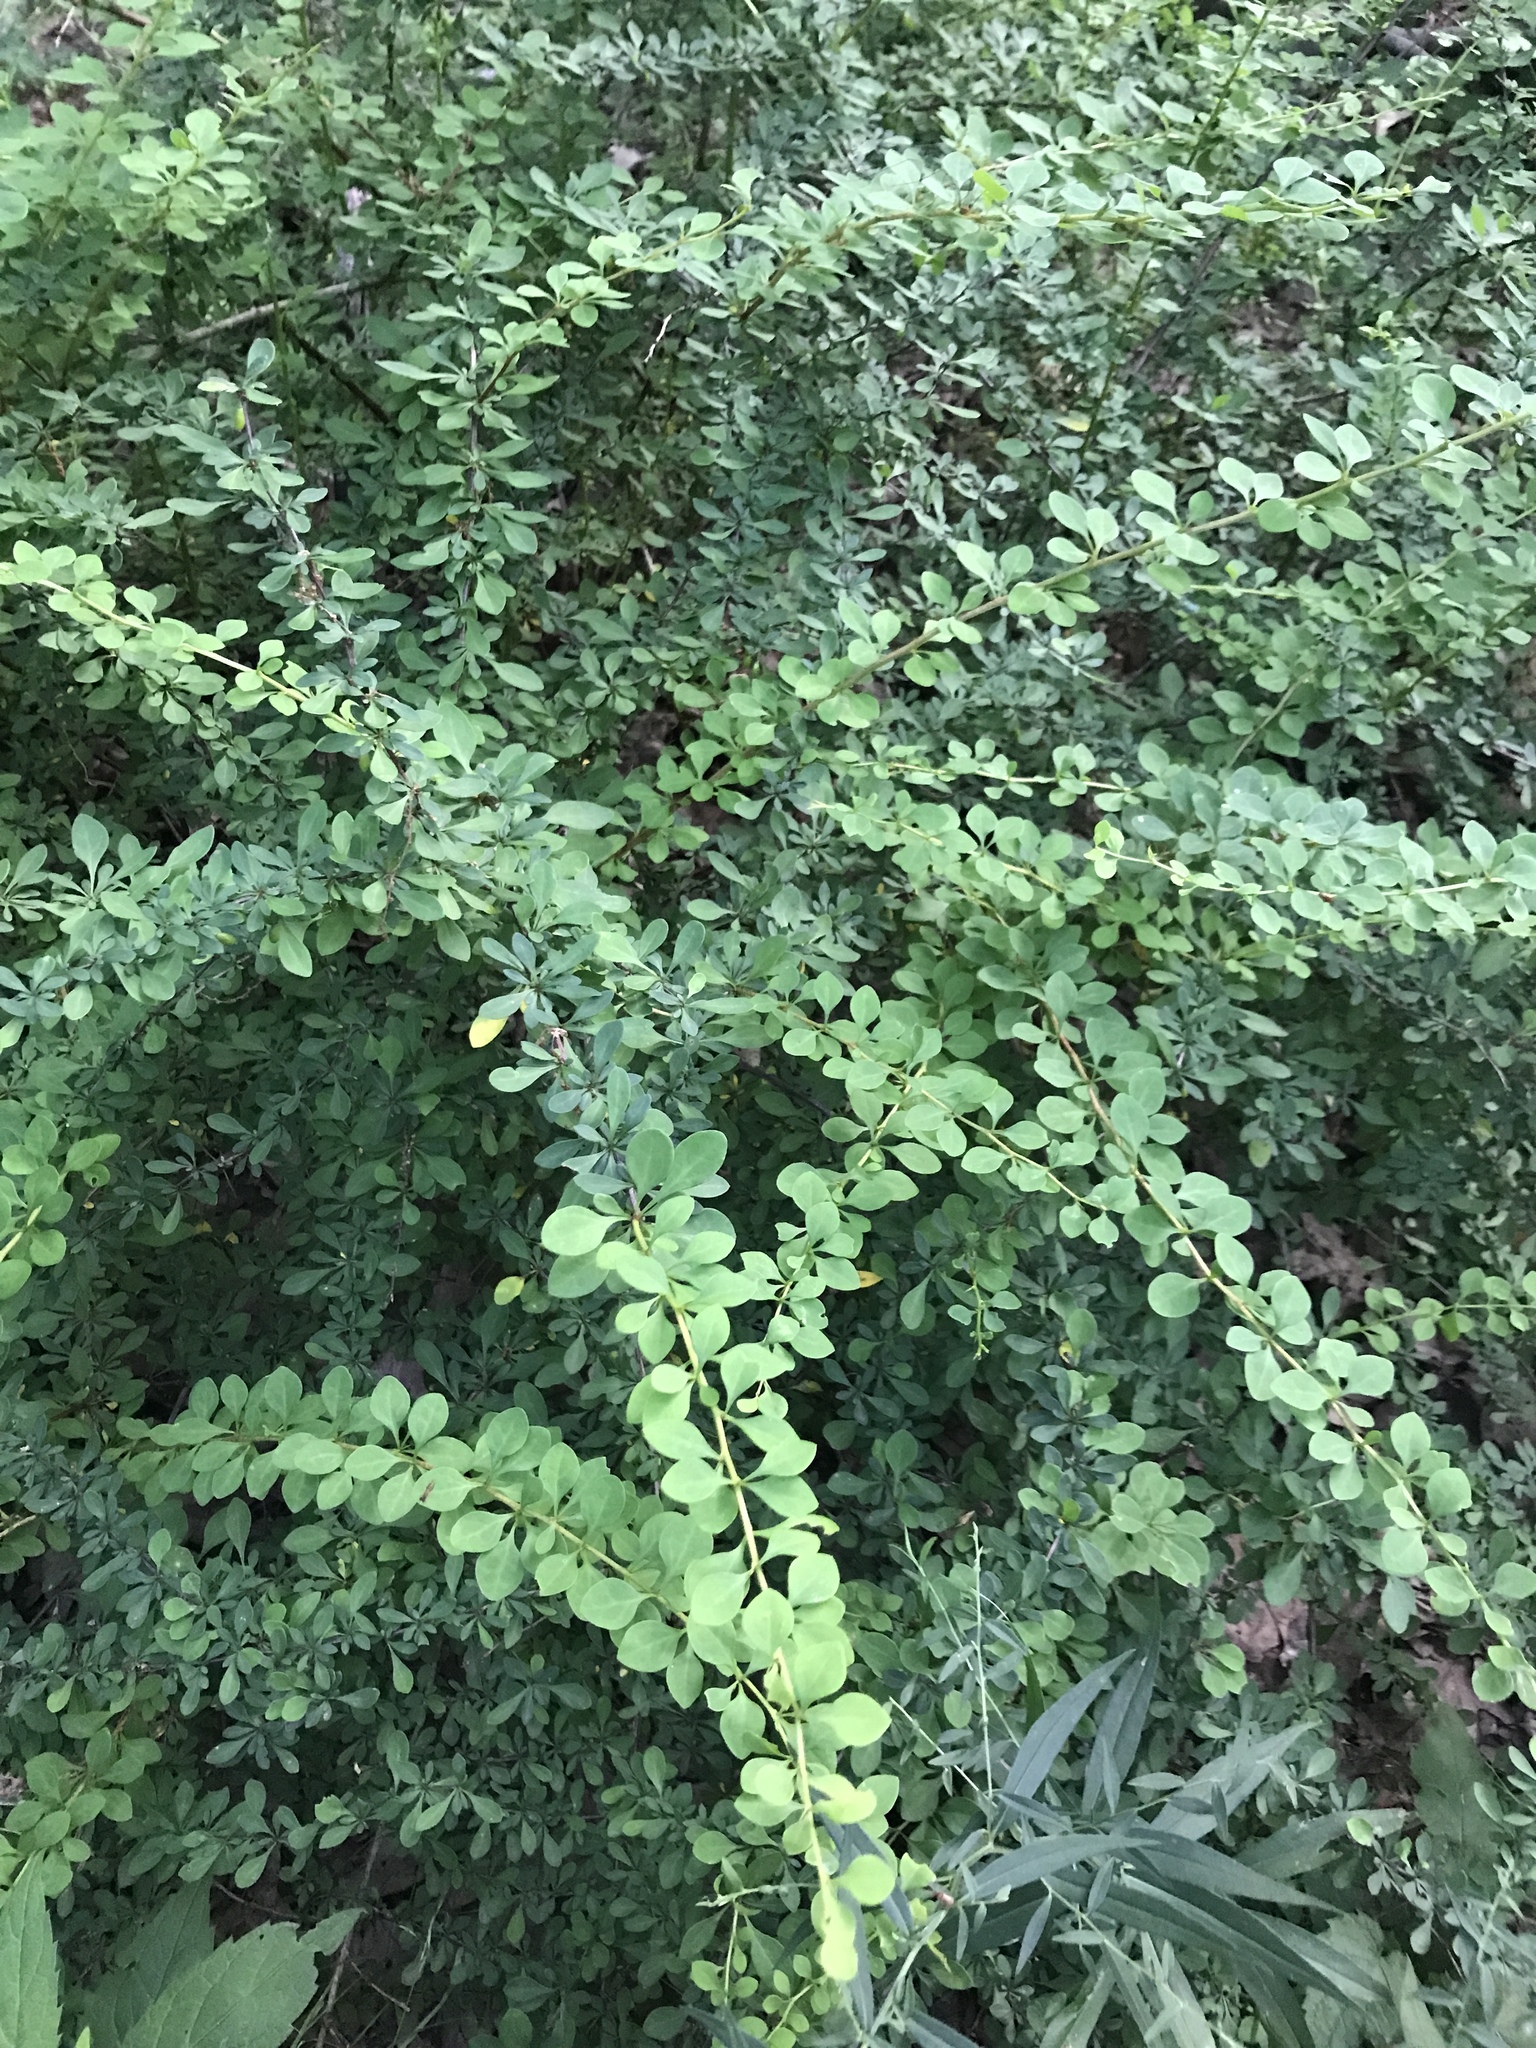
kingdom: Plantae
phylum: Tracheophyta
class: Magnoliopsida
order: Ranunculales
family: Berberidaceae
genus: Berberis
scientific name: Berberis thunbergii
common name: Japanese barberry
